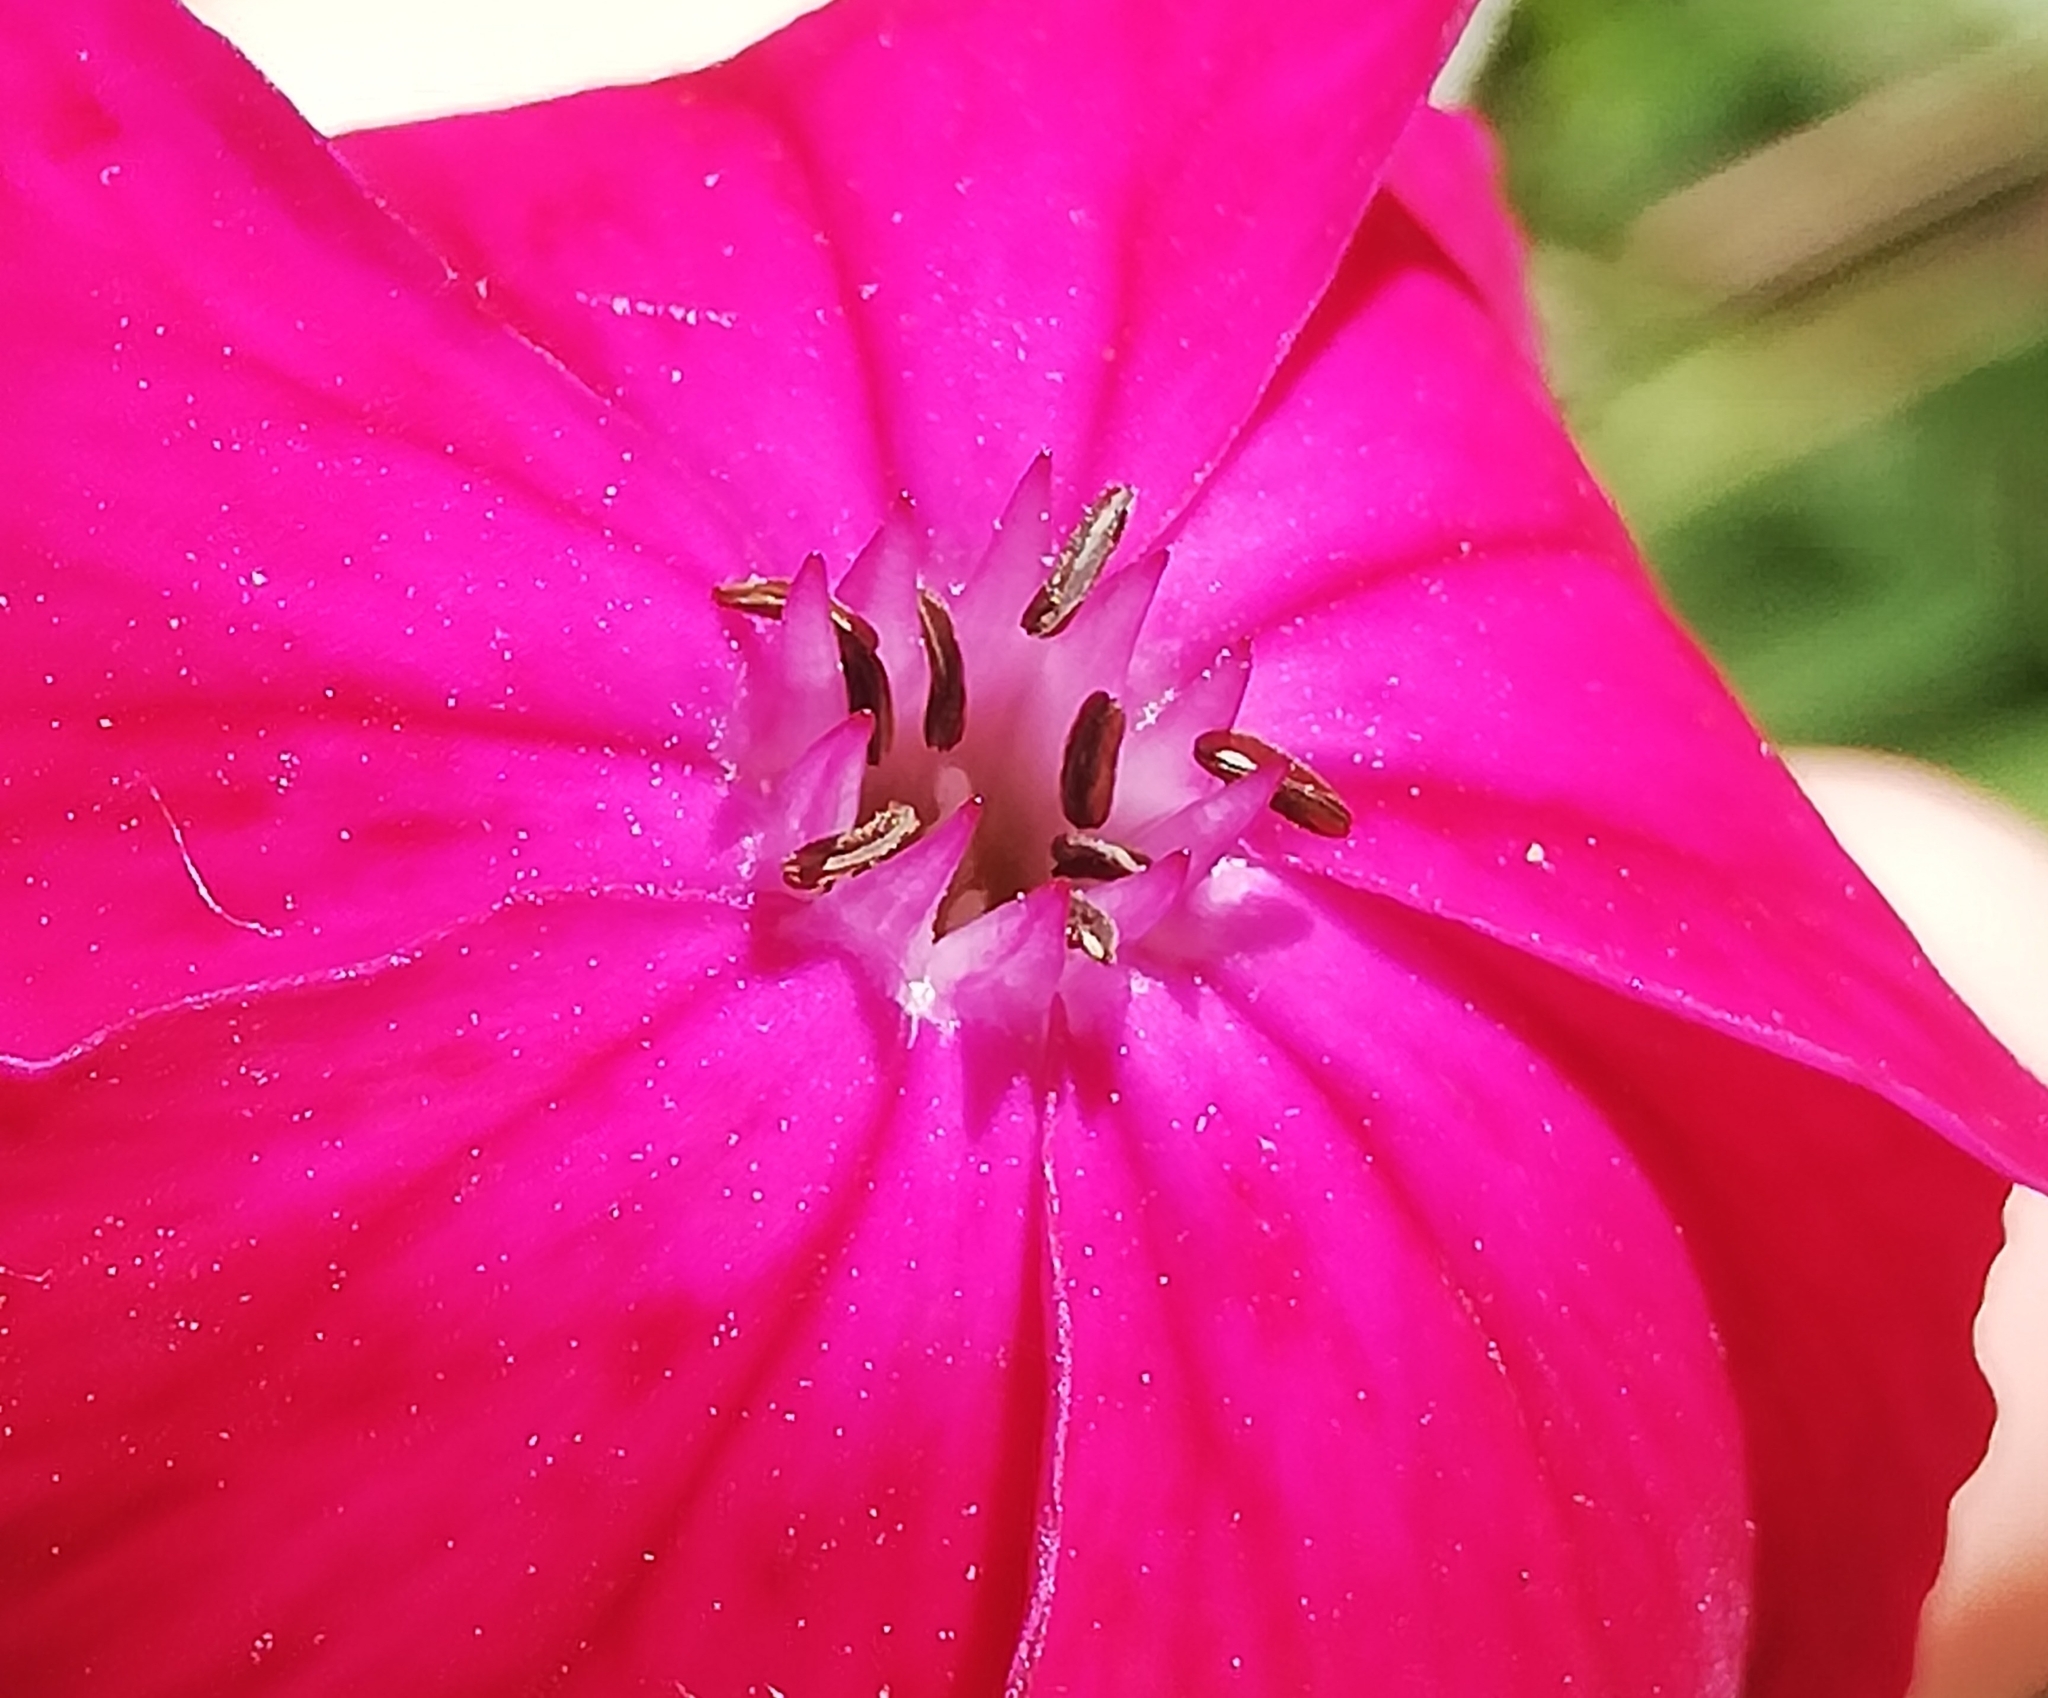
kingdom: Plantae
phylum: Tracheophyta
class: Magnoliopsida
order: Caryophyllales
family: Caryophyllaceae
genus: Silene
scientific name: Silene coronaria
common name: Rose campion
